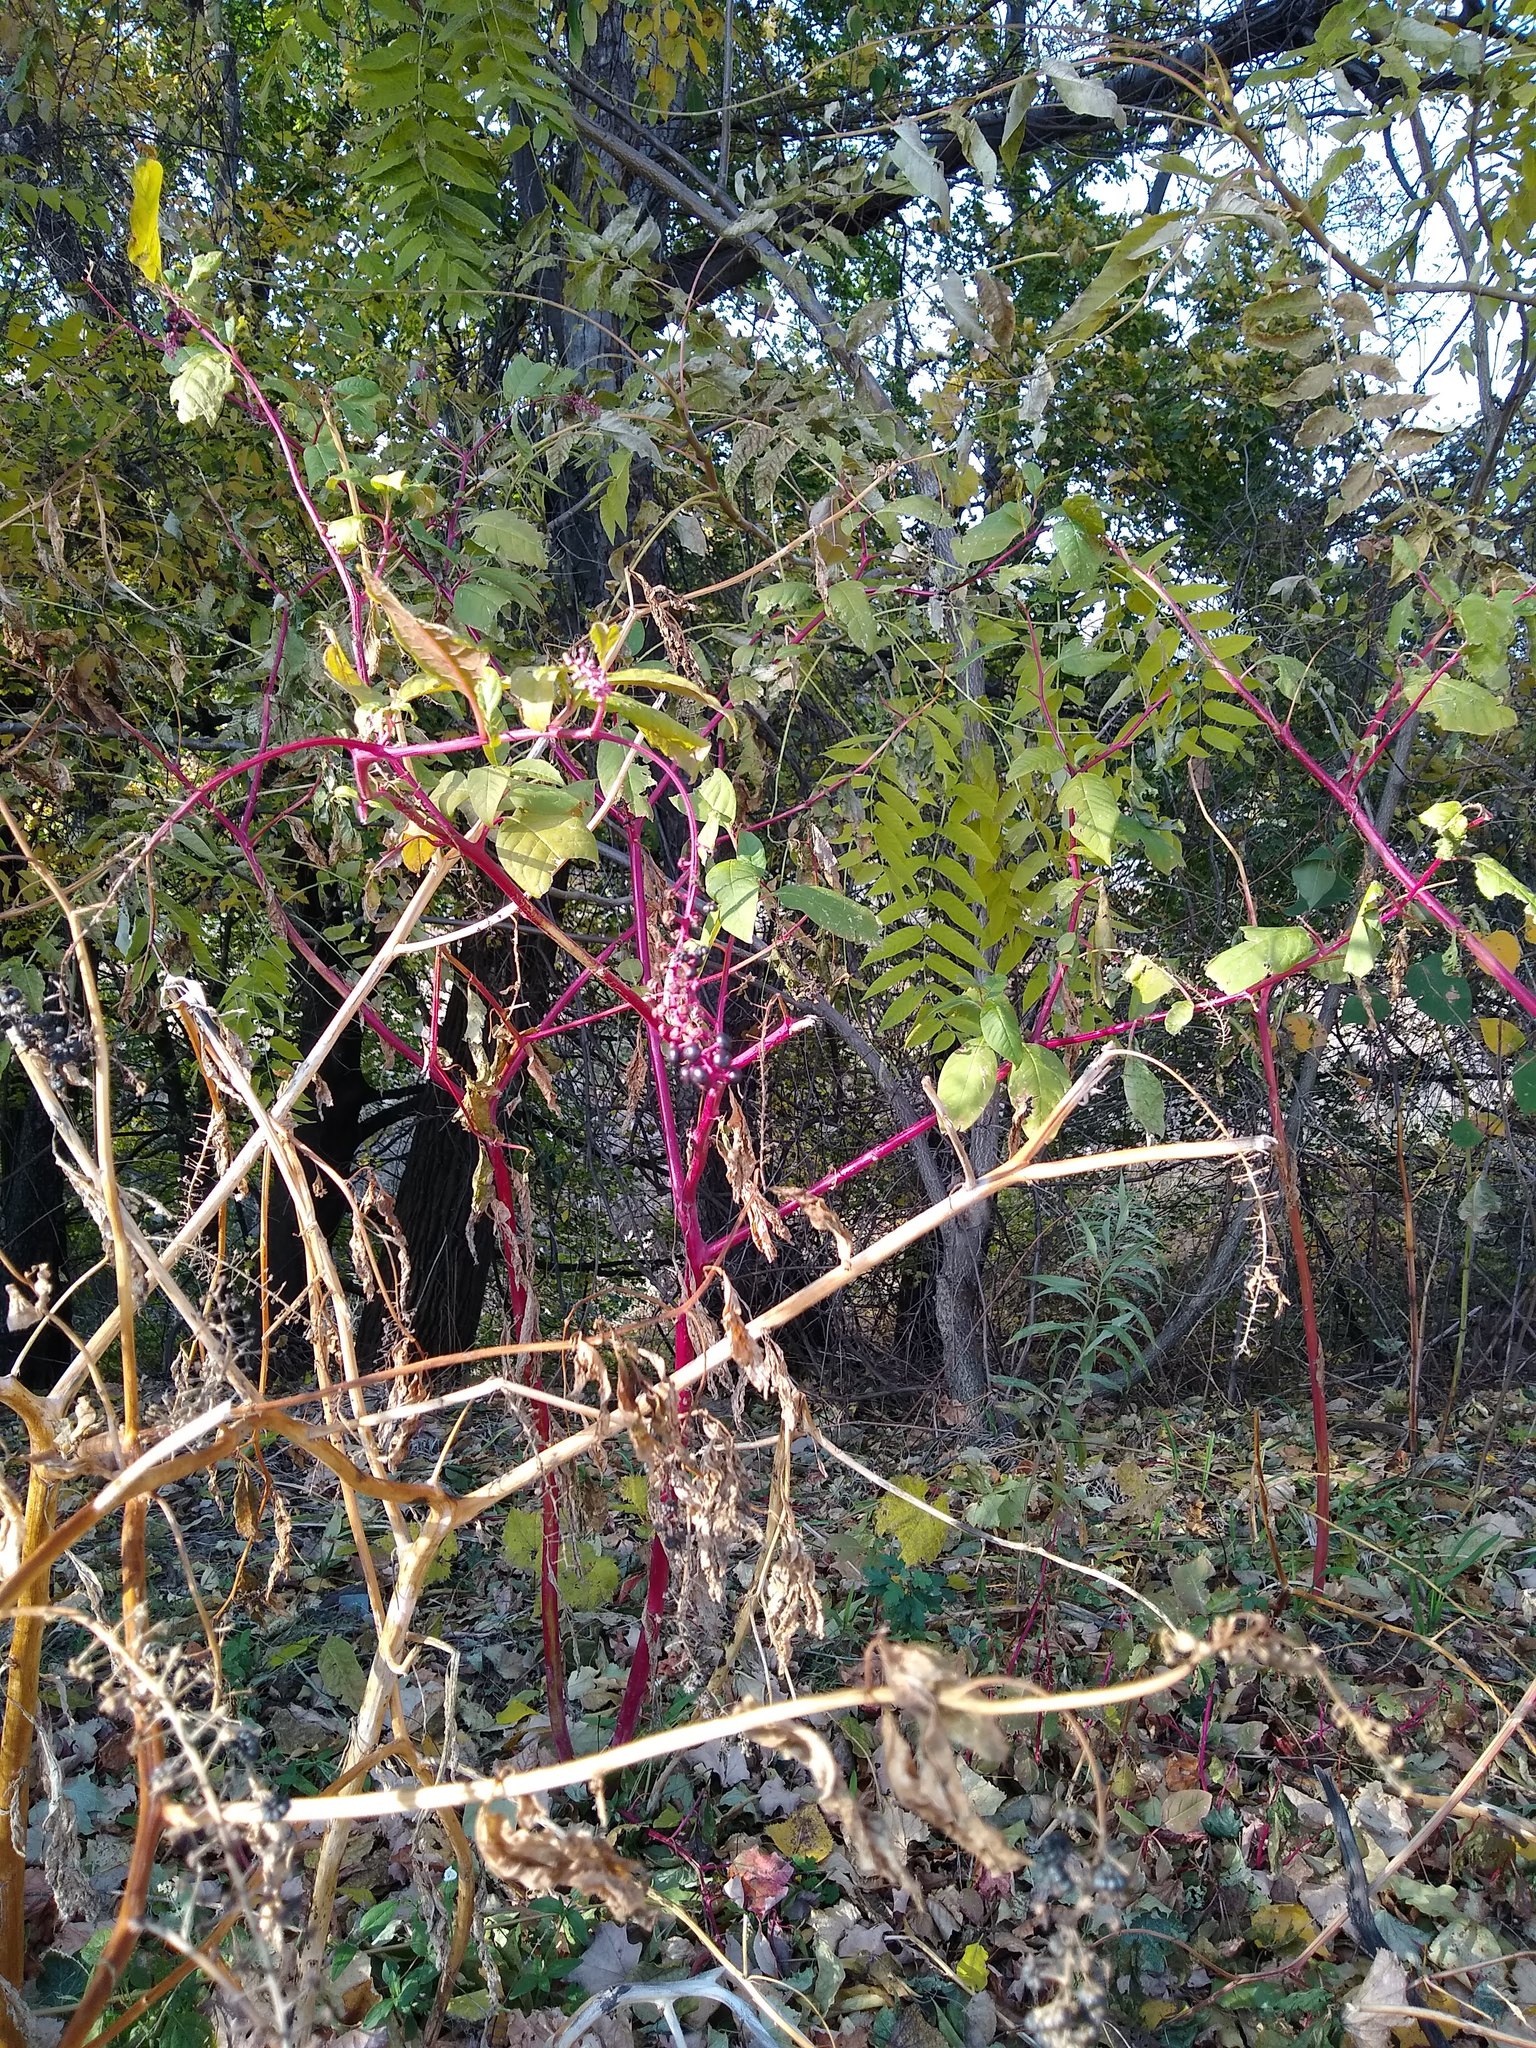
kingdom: Plantae
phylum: Tracheophyta
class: Magnoliopsida
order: Caryophyllales
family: Phytolaccaceae
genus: Phytolacca
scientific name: Phytolacca americana
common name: American pokeweed
